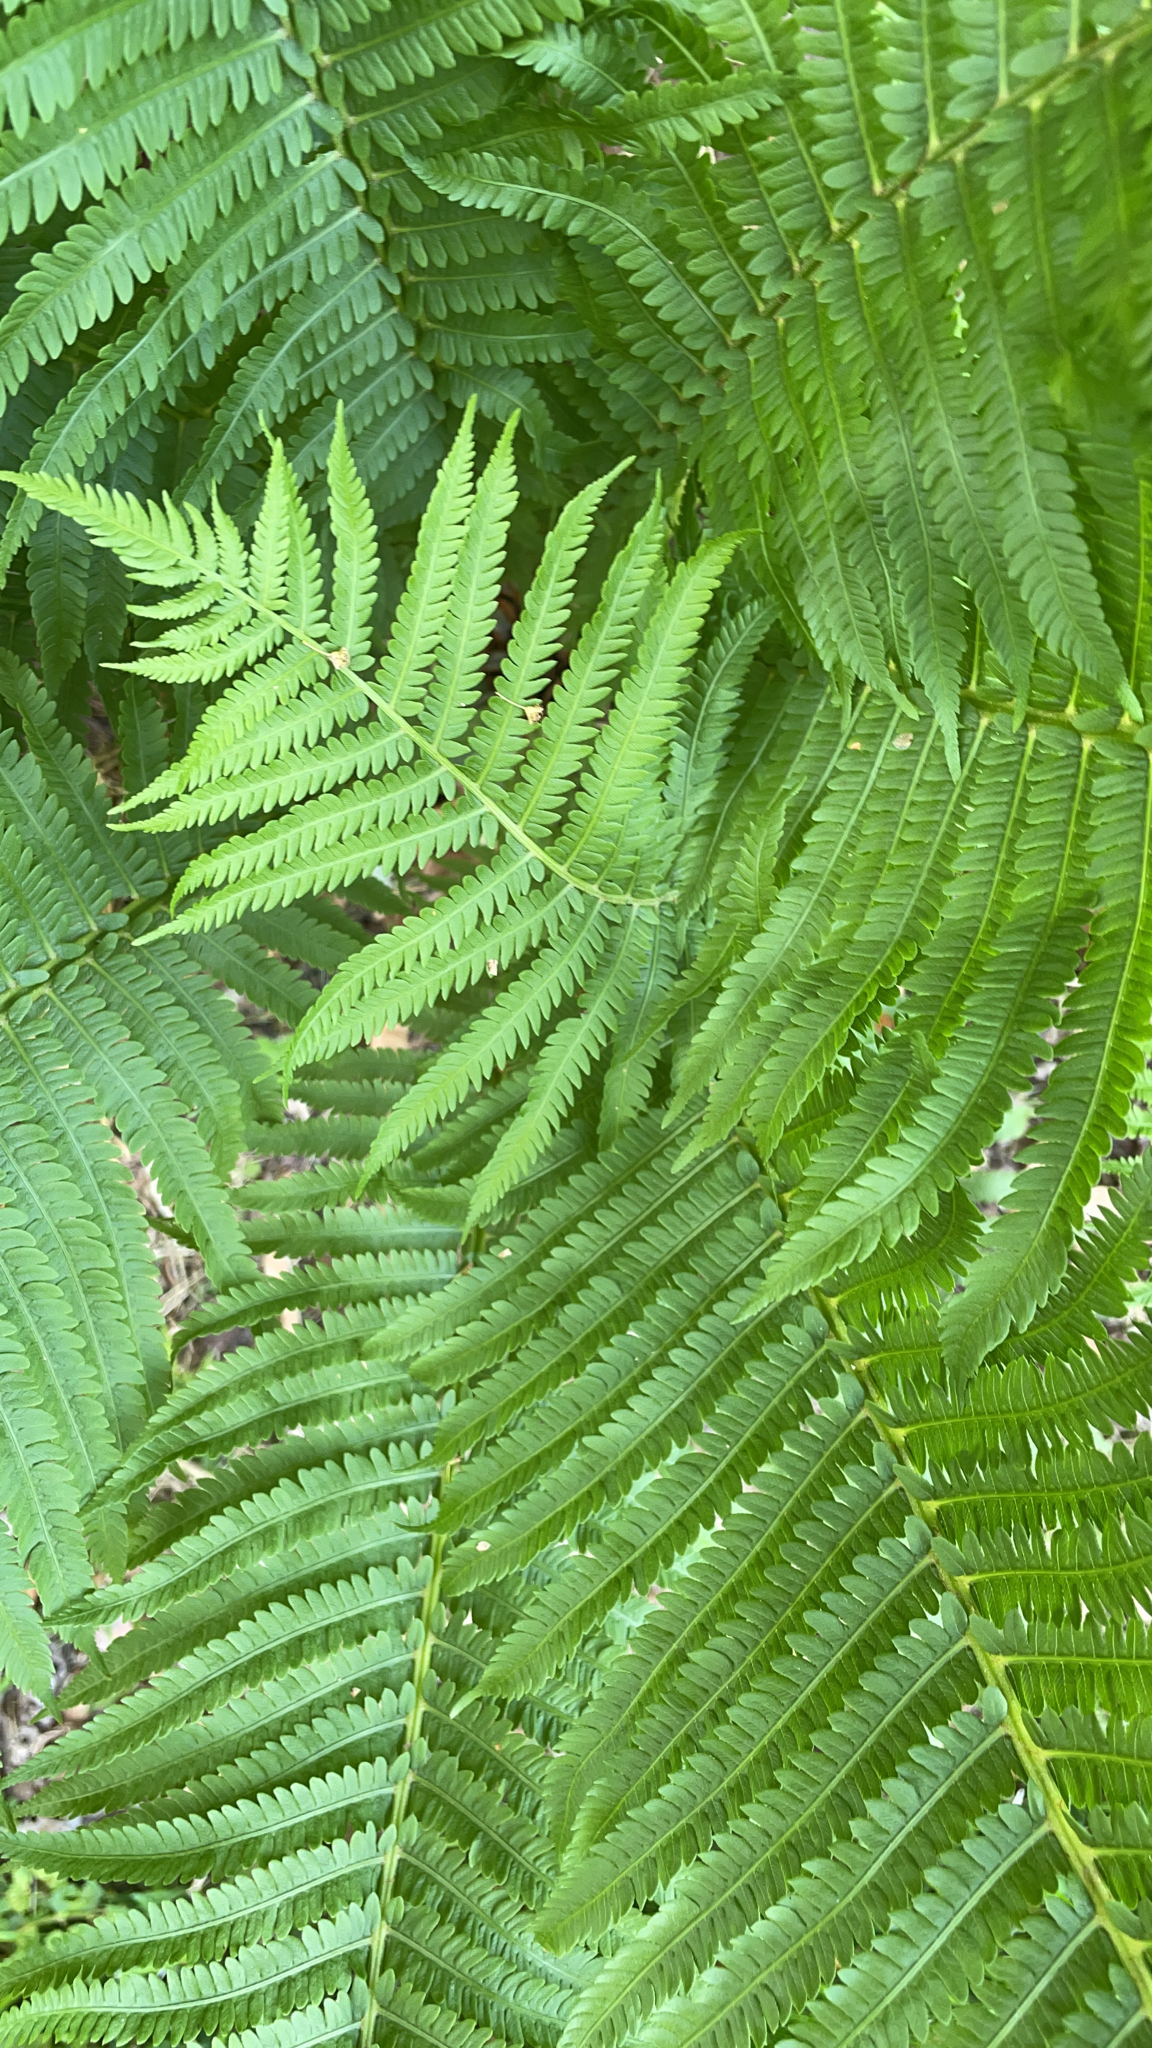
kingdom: Plantae
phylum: Tracheophyta
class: Polypodiopsida
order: Polypodiales
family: Onocleaceae
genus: Matteuccia
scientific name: Matteuccia struthiopteris
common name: Ostrich fern
